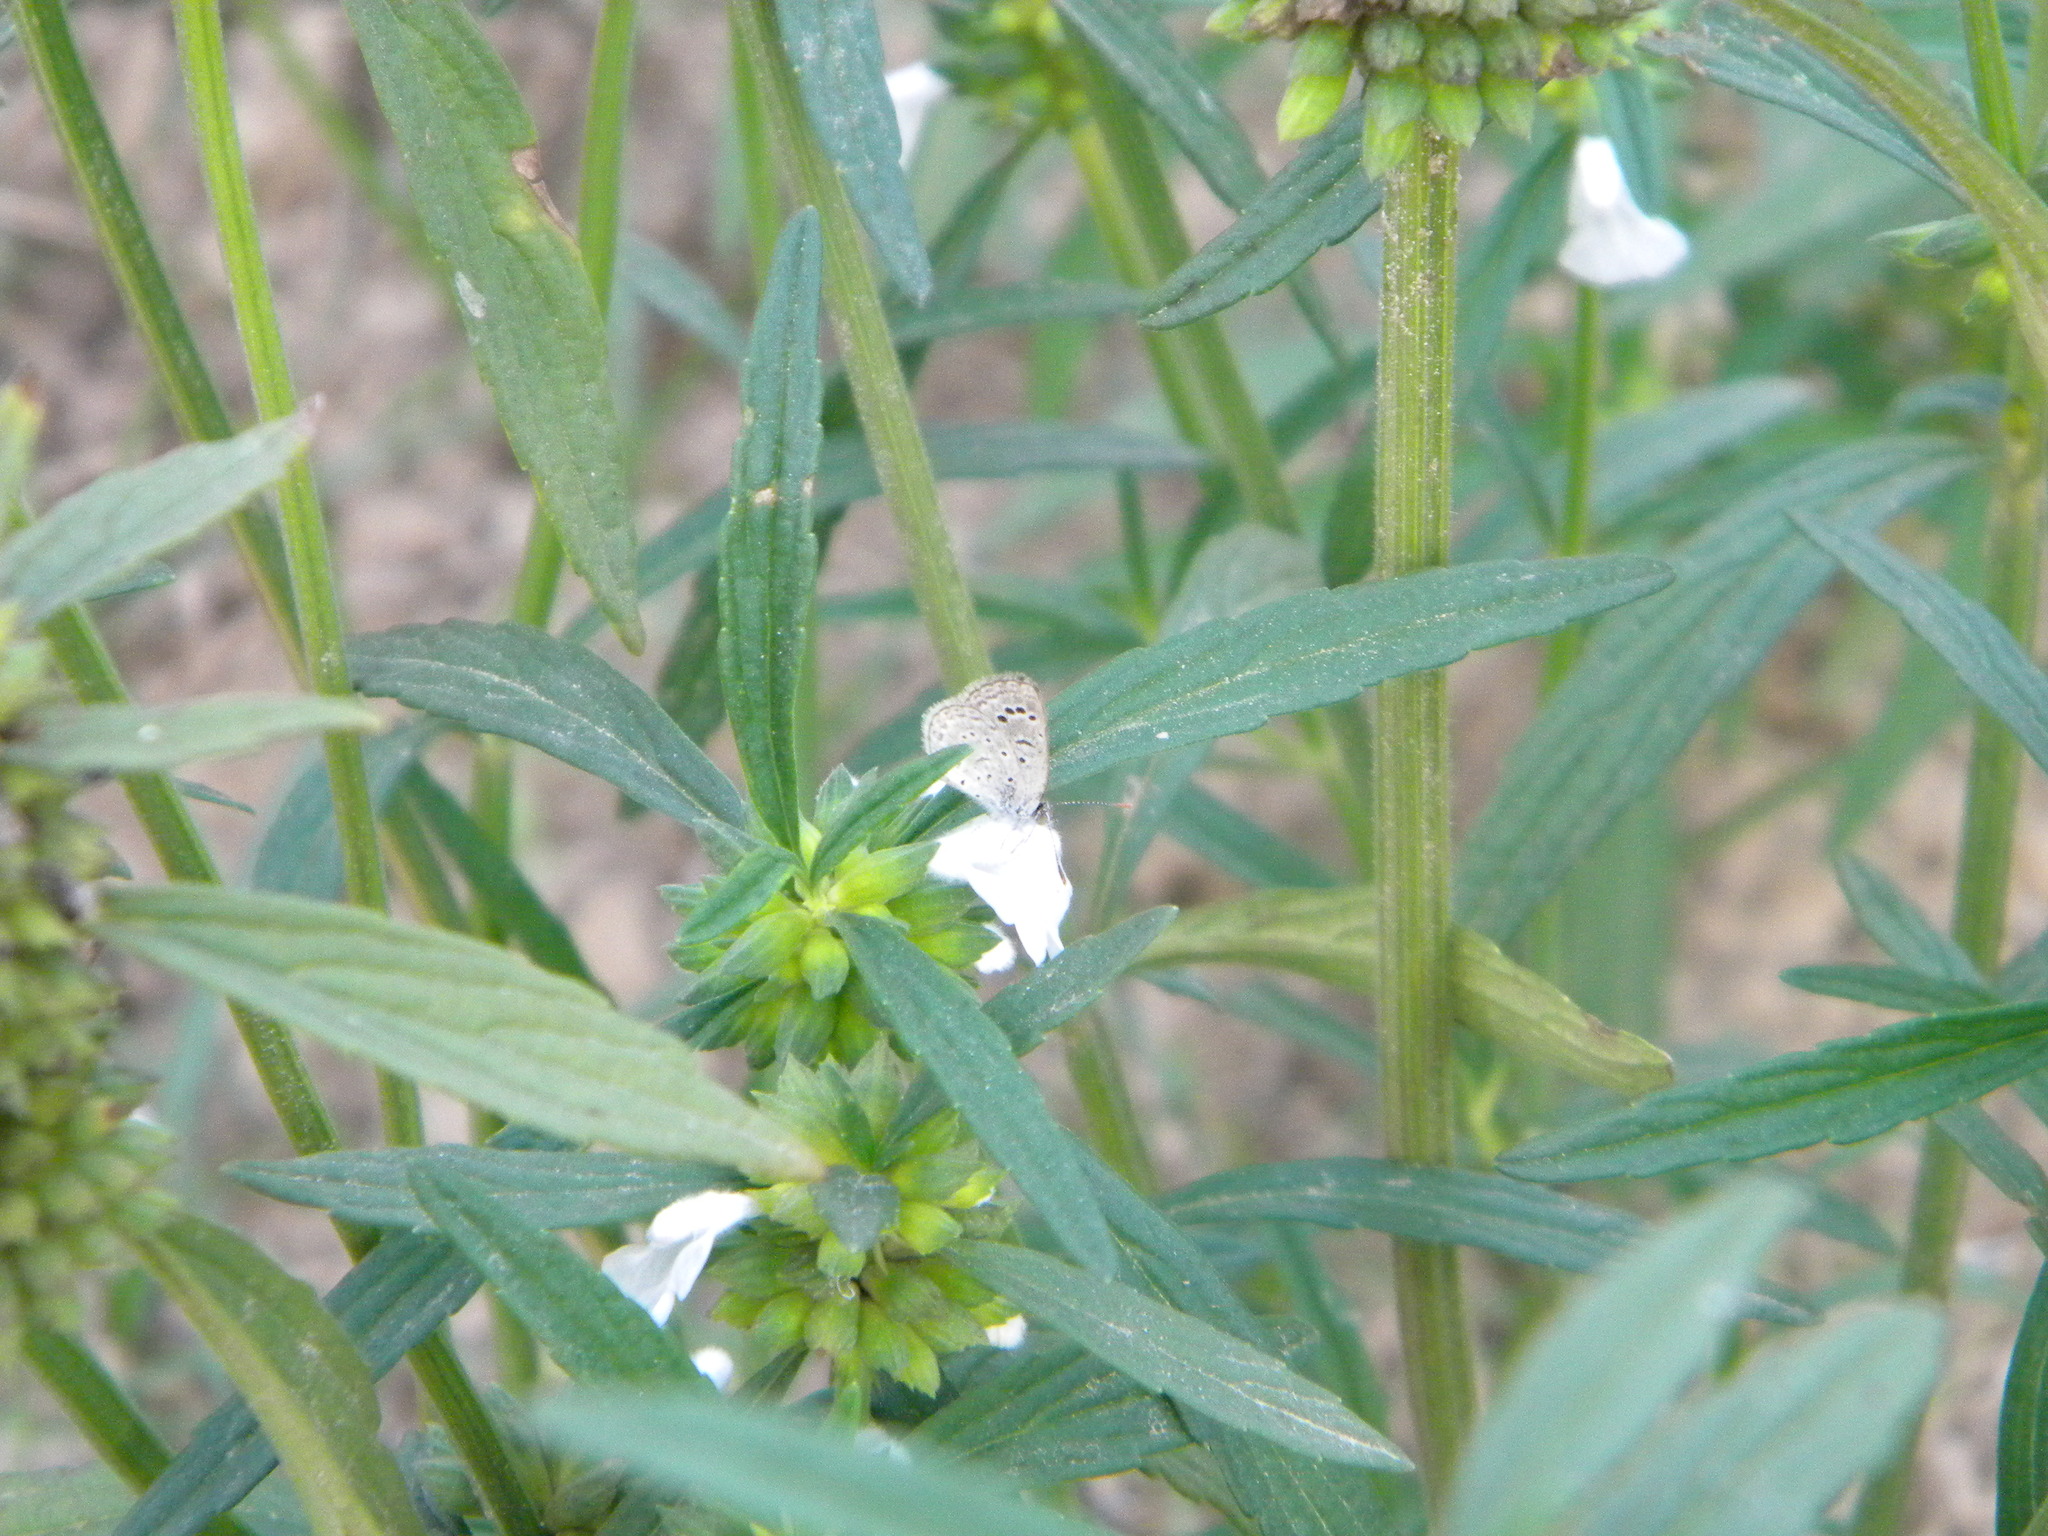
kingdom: Animalia
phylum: Arthropoda
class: Insecta
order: Lepidoptera
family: Lycaenidae
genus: Pseudozizeeria
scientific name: Pseudozizeeria maha
